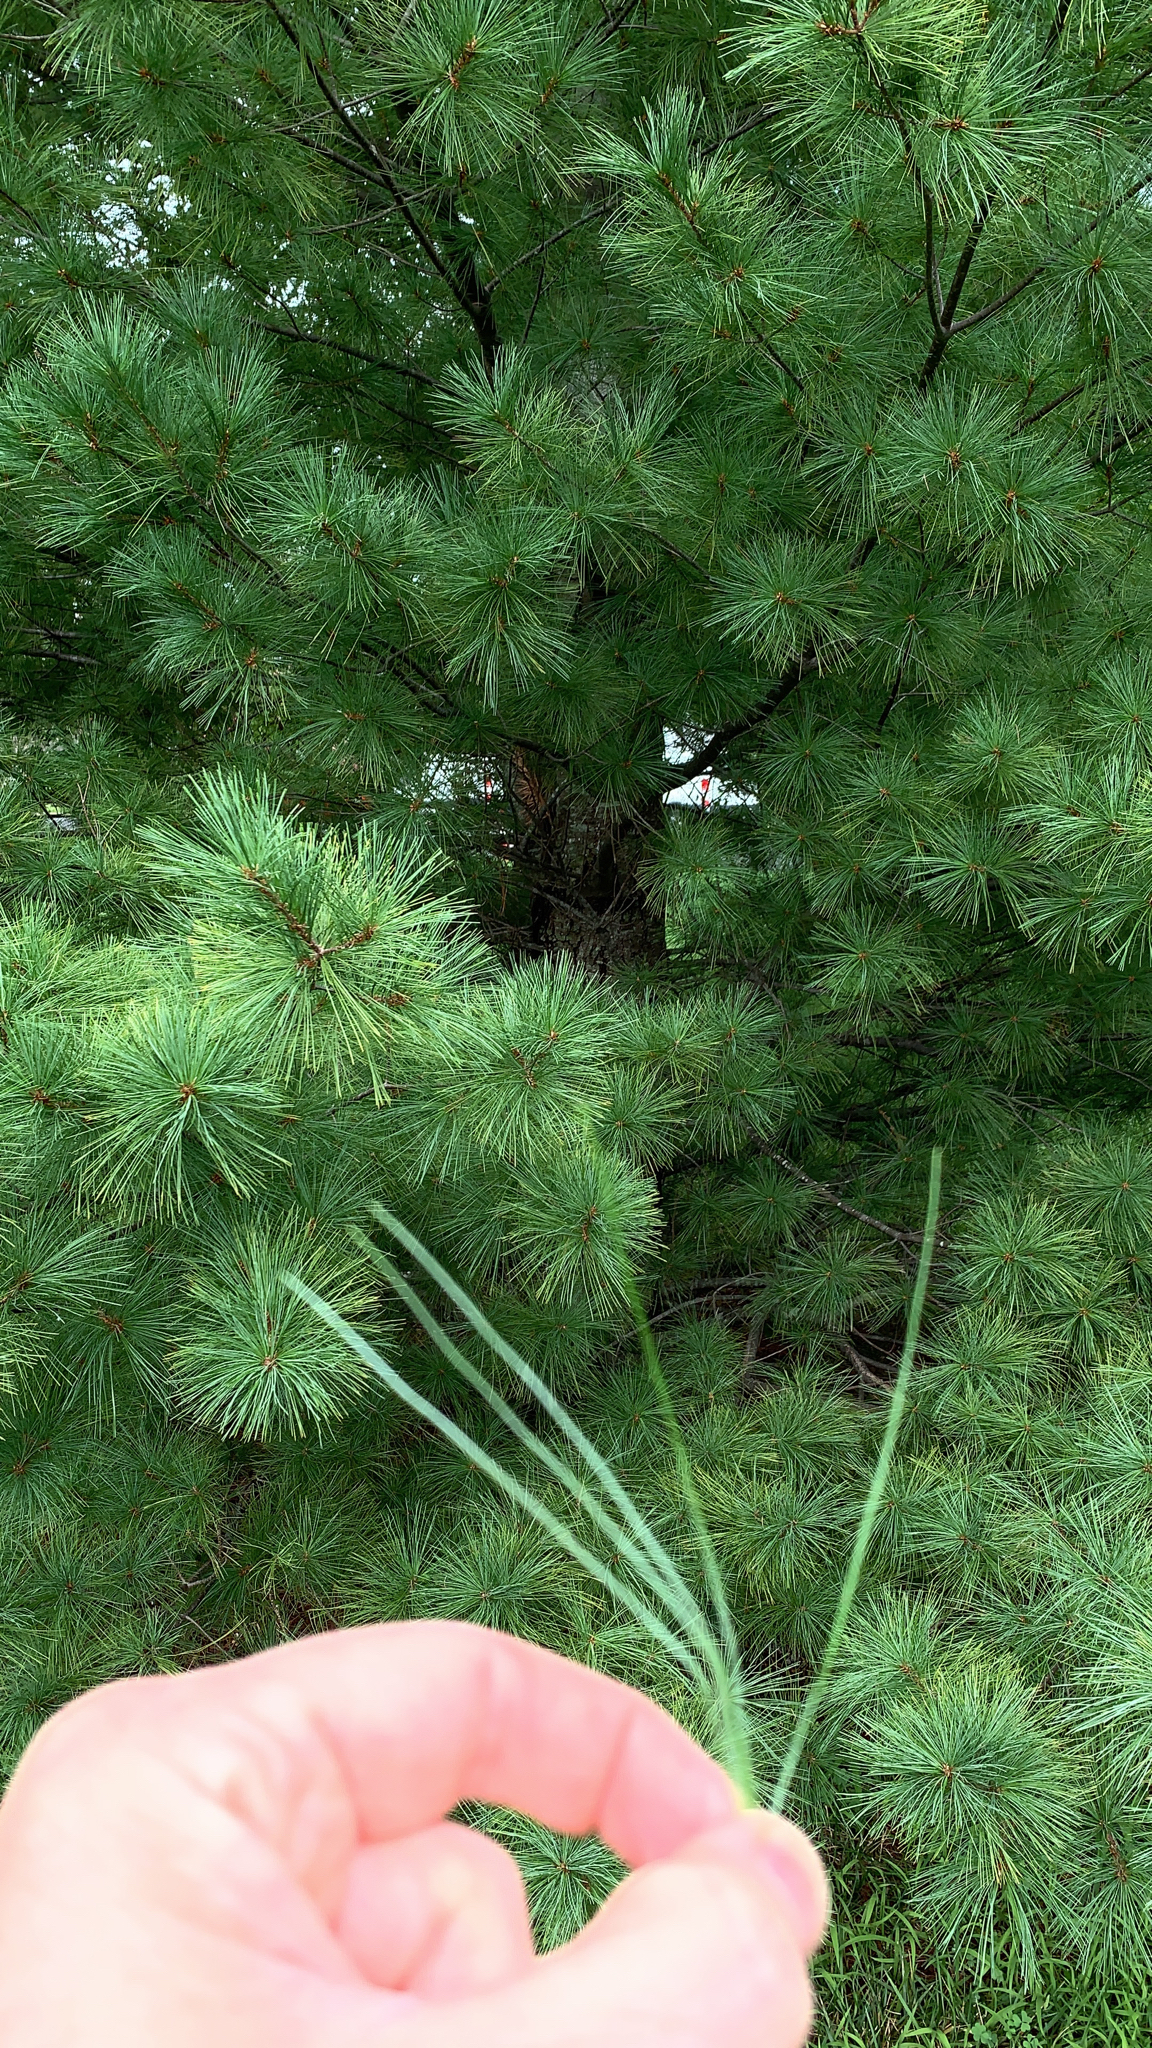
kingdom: Plantae
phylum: Tracheophyta
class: Pinopsida
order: Pinales
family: Pinaceae
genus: Pinus
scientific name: Pinus strobus
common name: Weymouth pine
